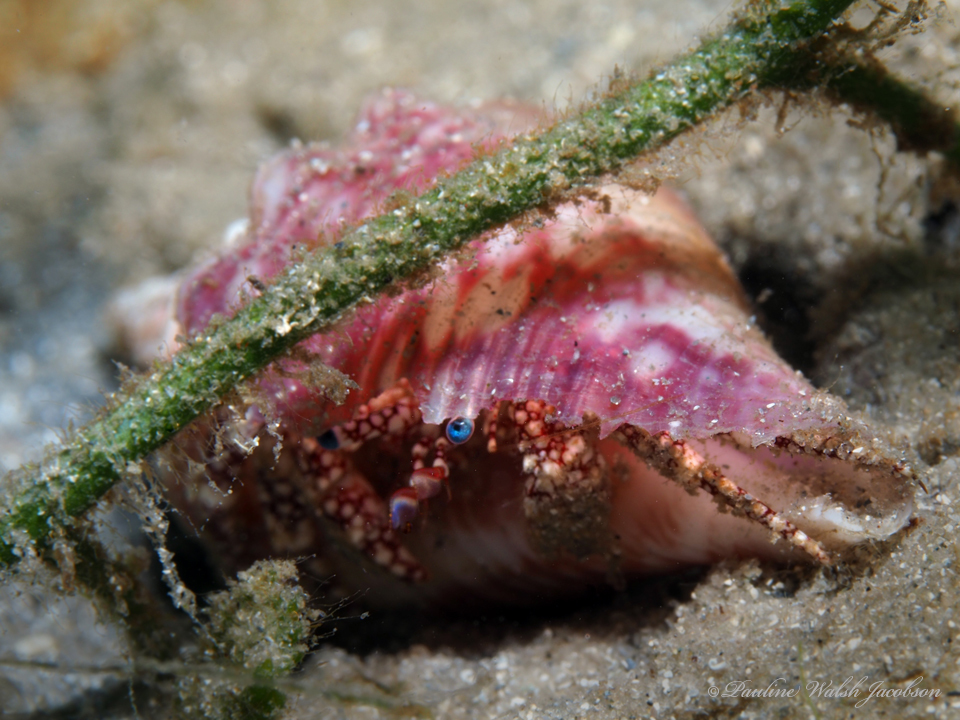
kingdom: Animalia
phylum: Arthropoda
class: Malacostraca
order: Decapoda
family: Diogenidae
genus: Paguristes
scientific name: Paguristes puncticeps
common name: White speckled hermit
